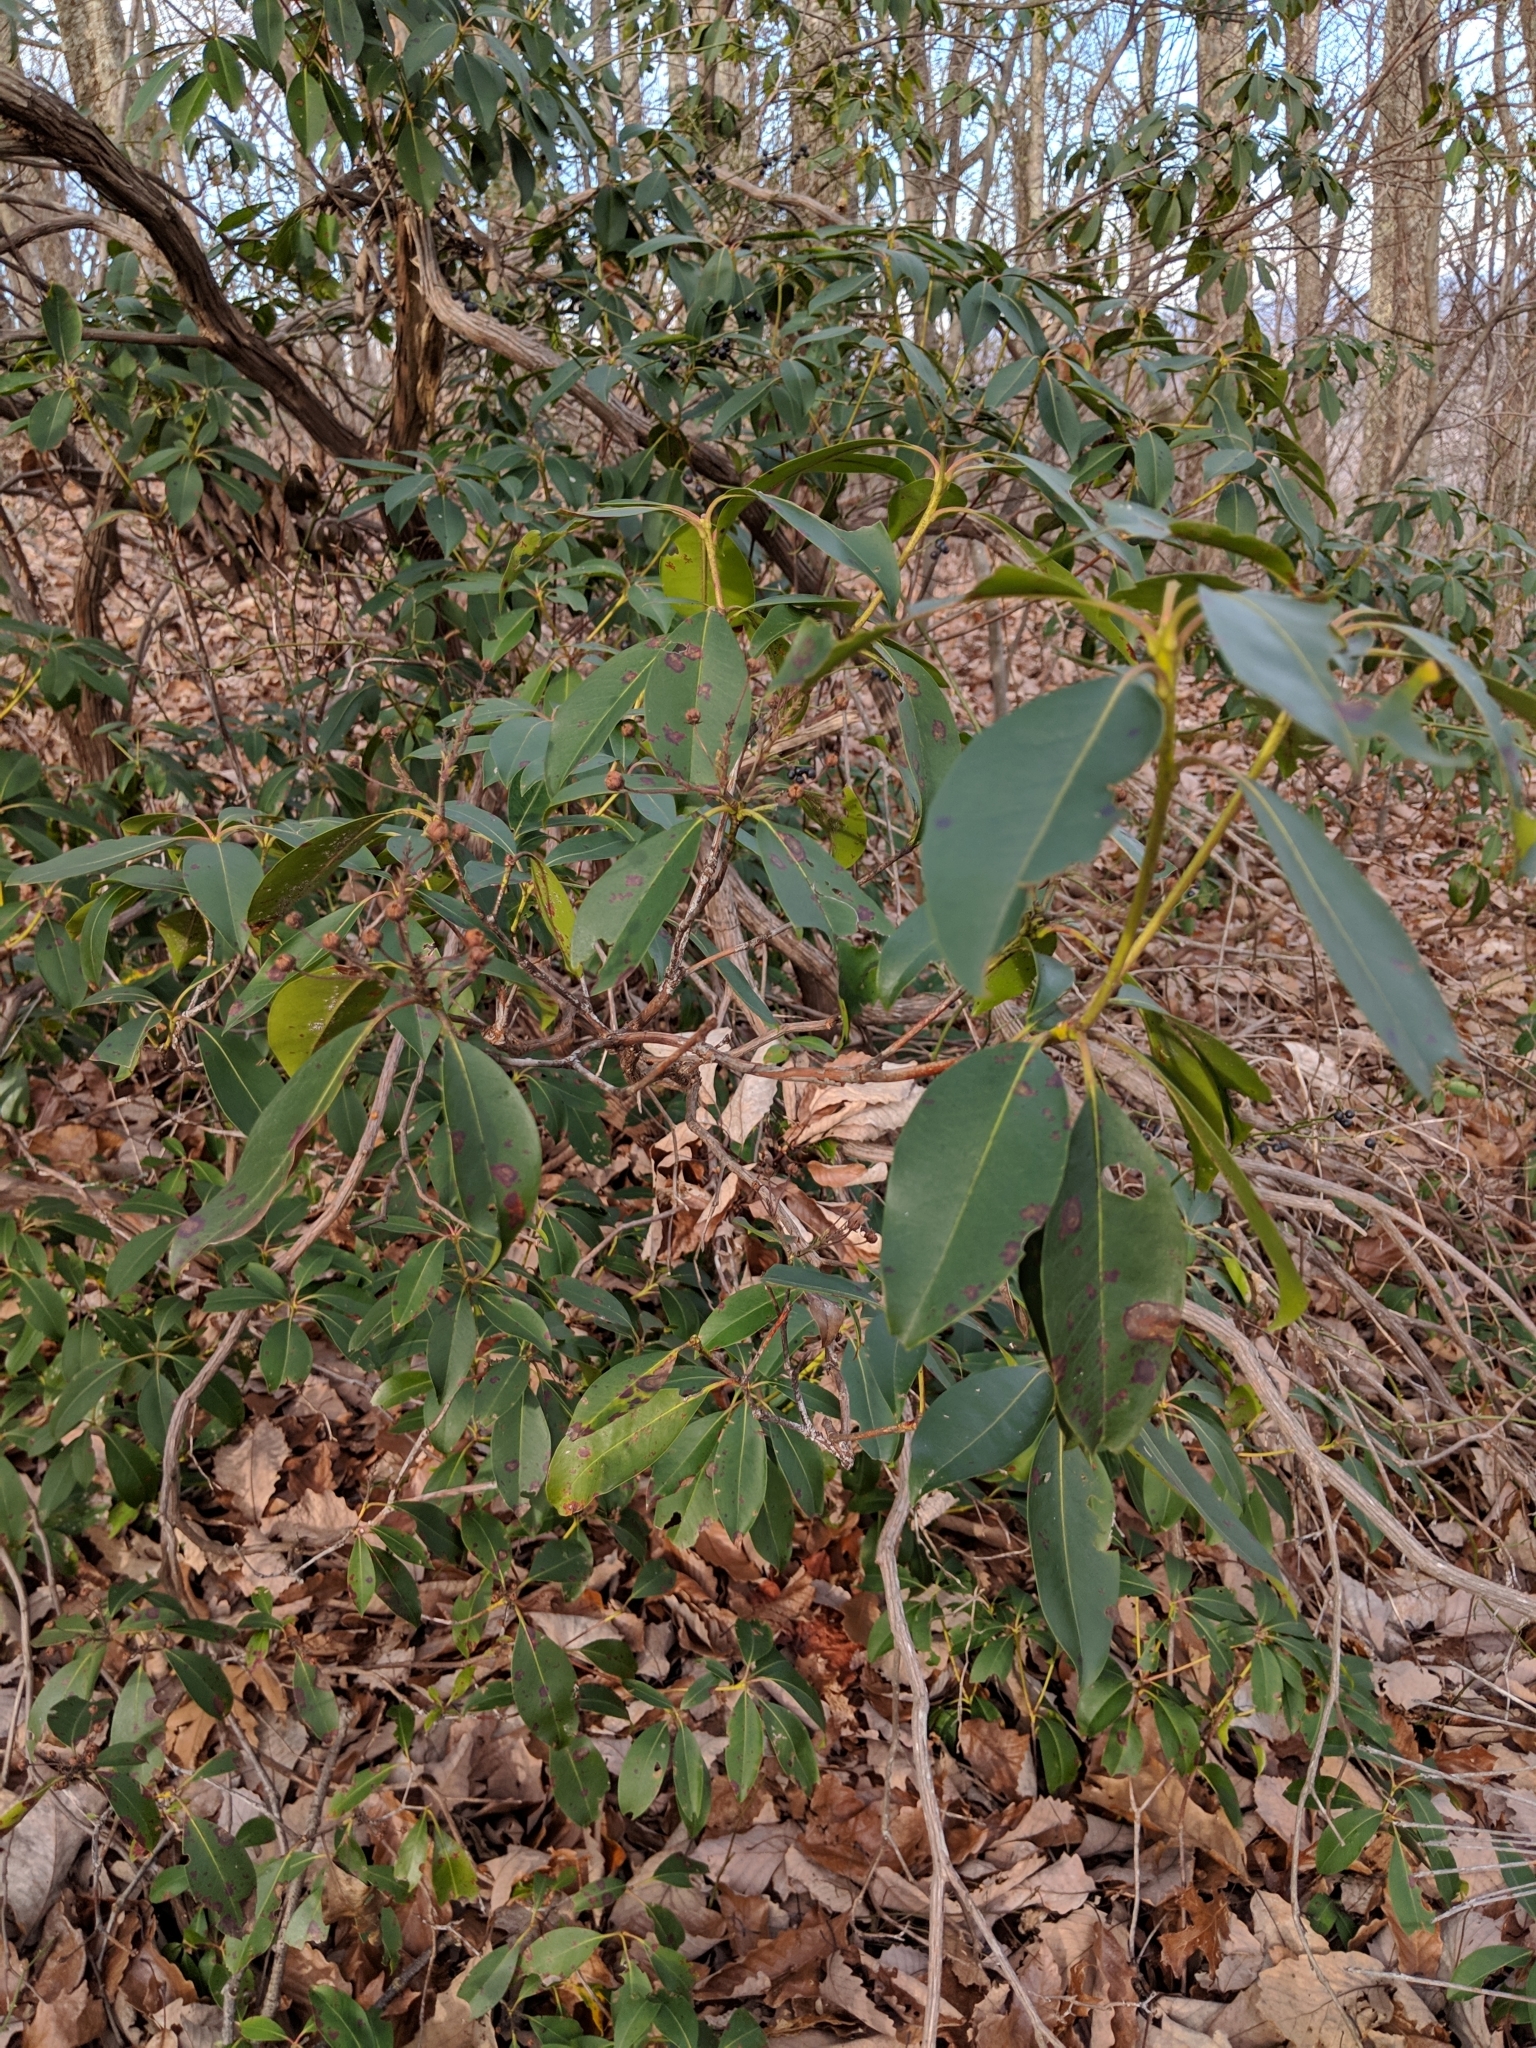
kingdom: Plantae
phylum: Tracheophyta
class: Magnoliopsida
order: Ericales
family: Ericaceae
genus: Kalmia
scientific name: Kalmia latifolia
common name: Mountain-laurel
